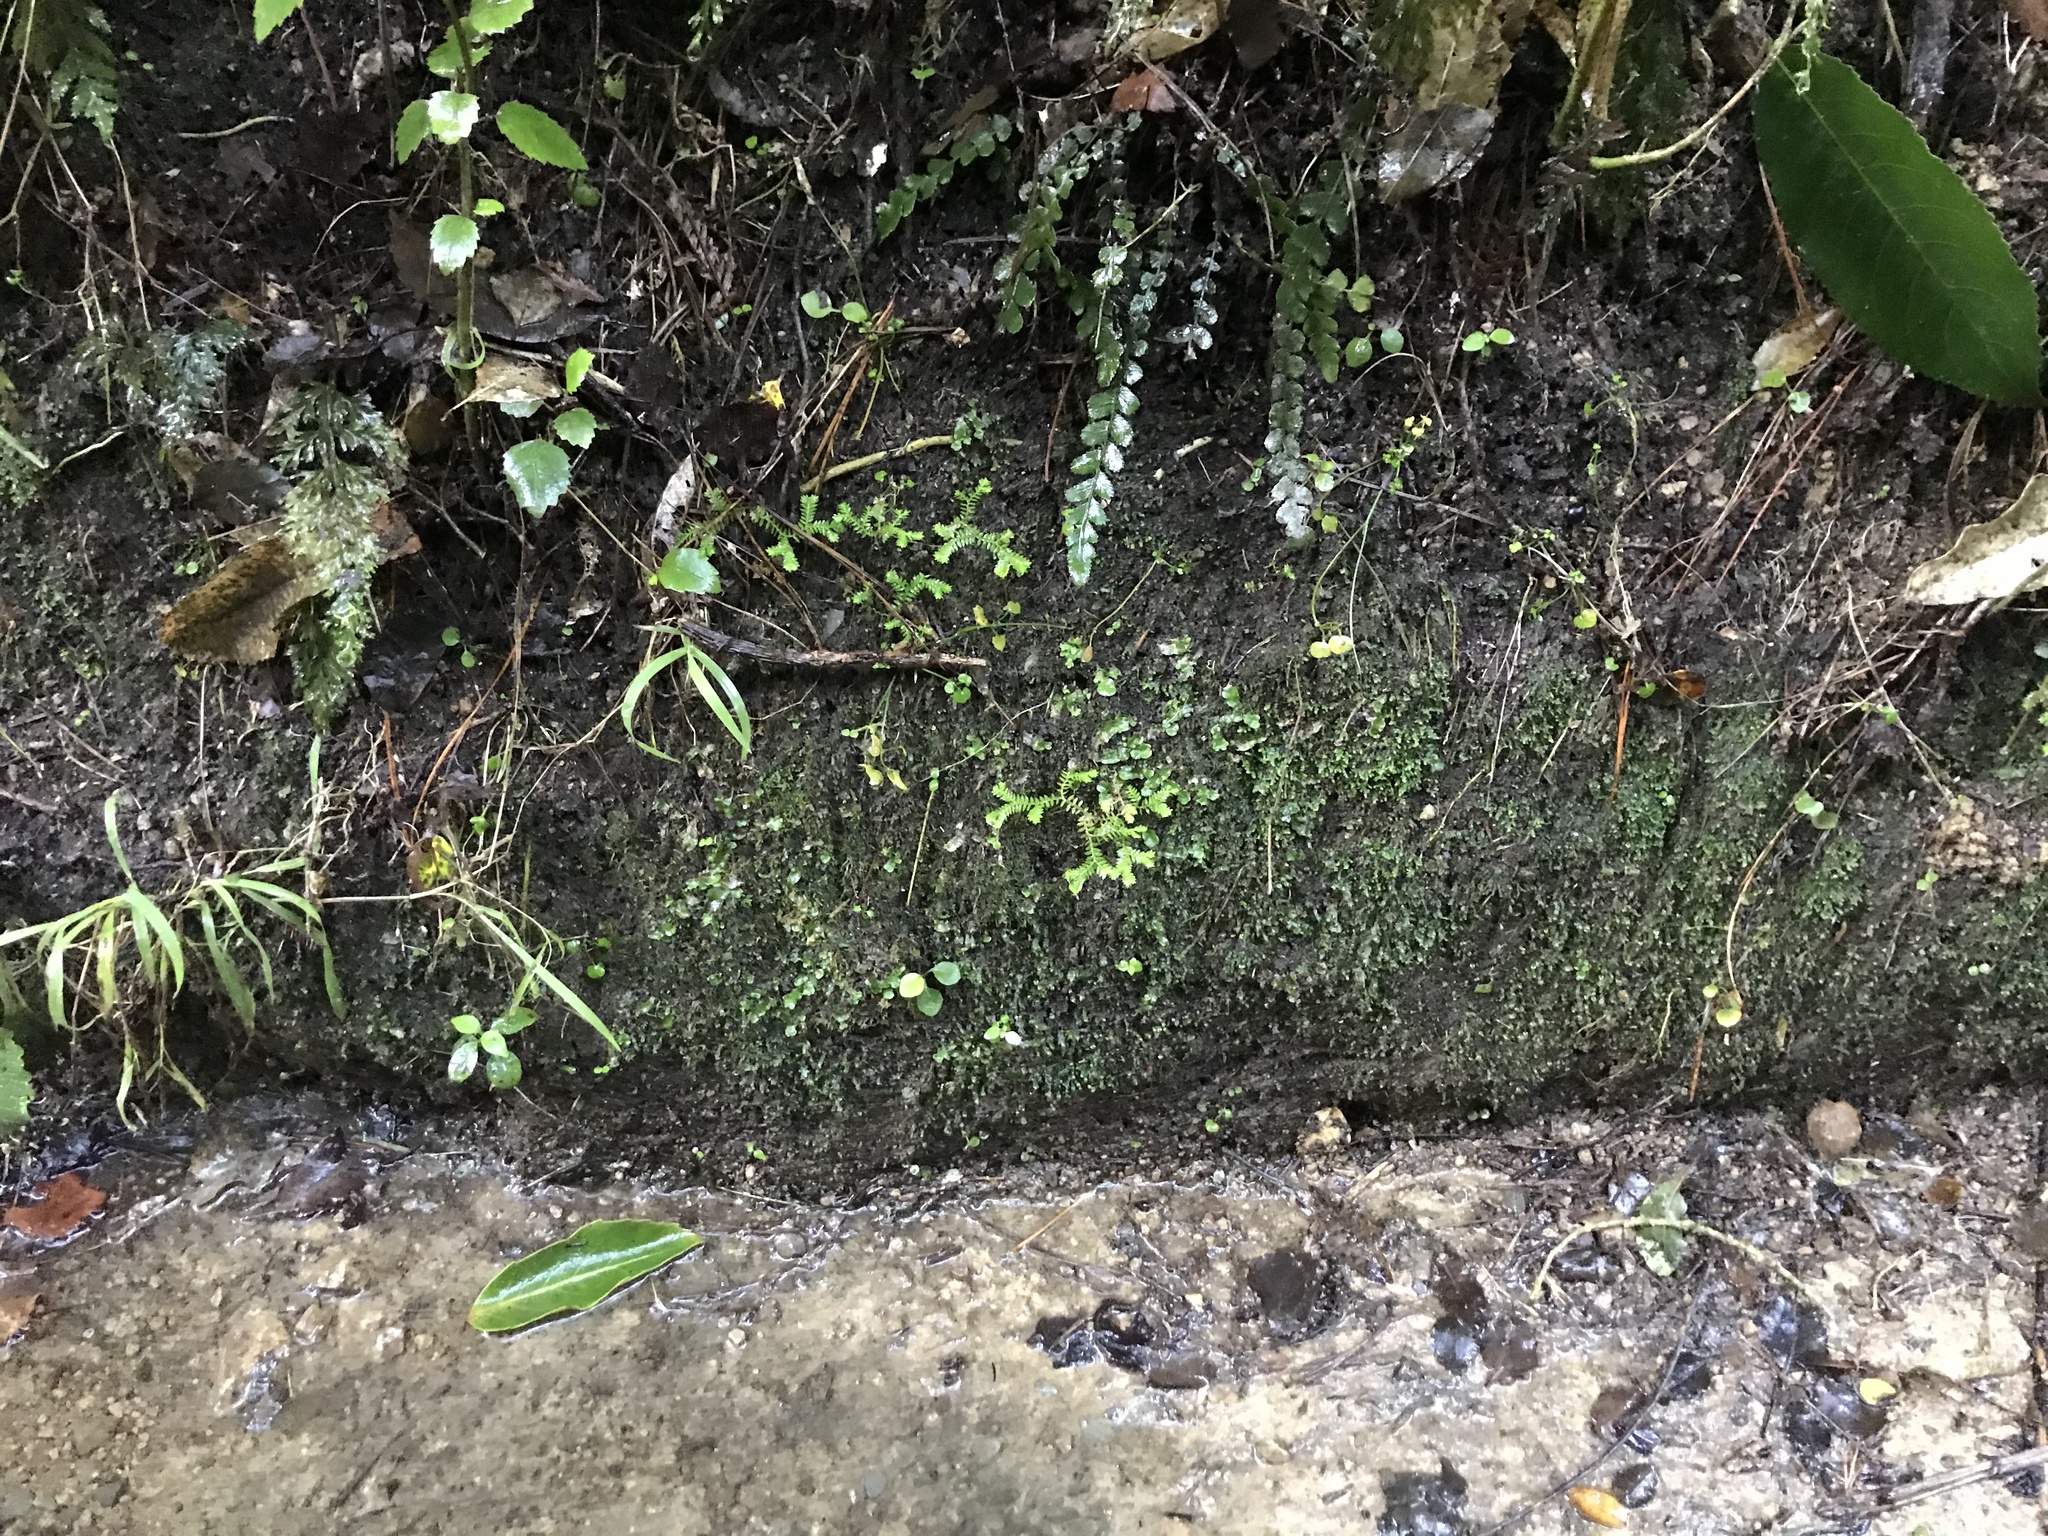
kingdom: Plantae
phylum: Tracheophyta
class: Lycopodiopsida
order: Selaginellales
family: Selaginellaceae
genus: Selaginella
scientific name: Selaginella kraussiana
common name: Krauss' spikemoss
